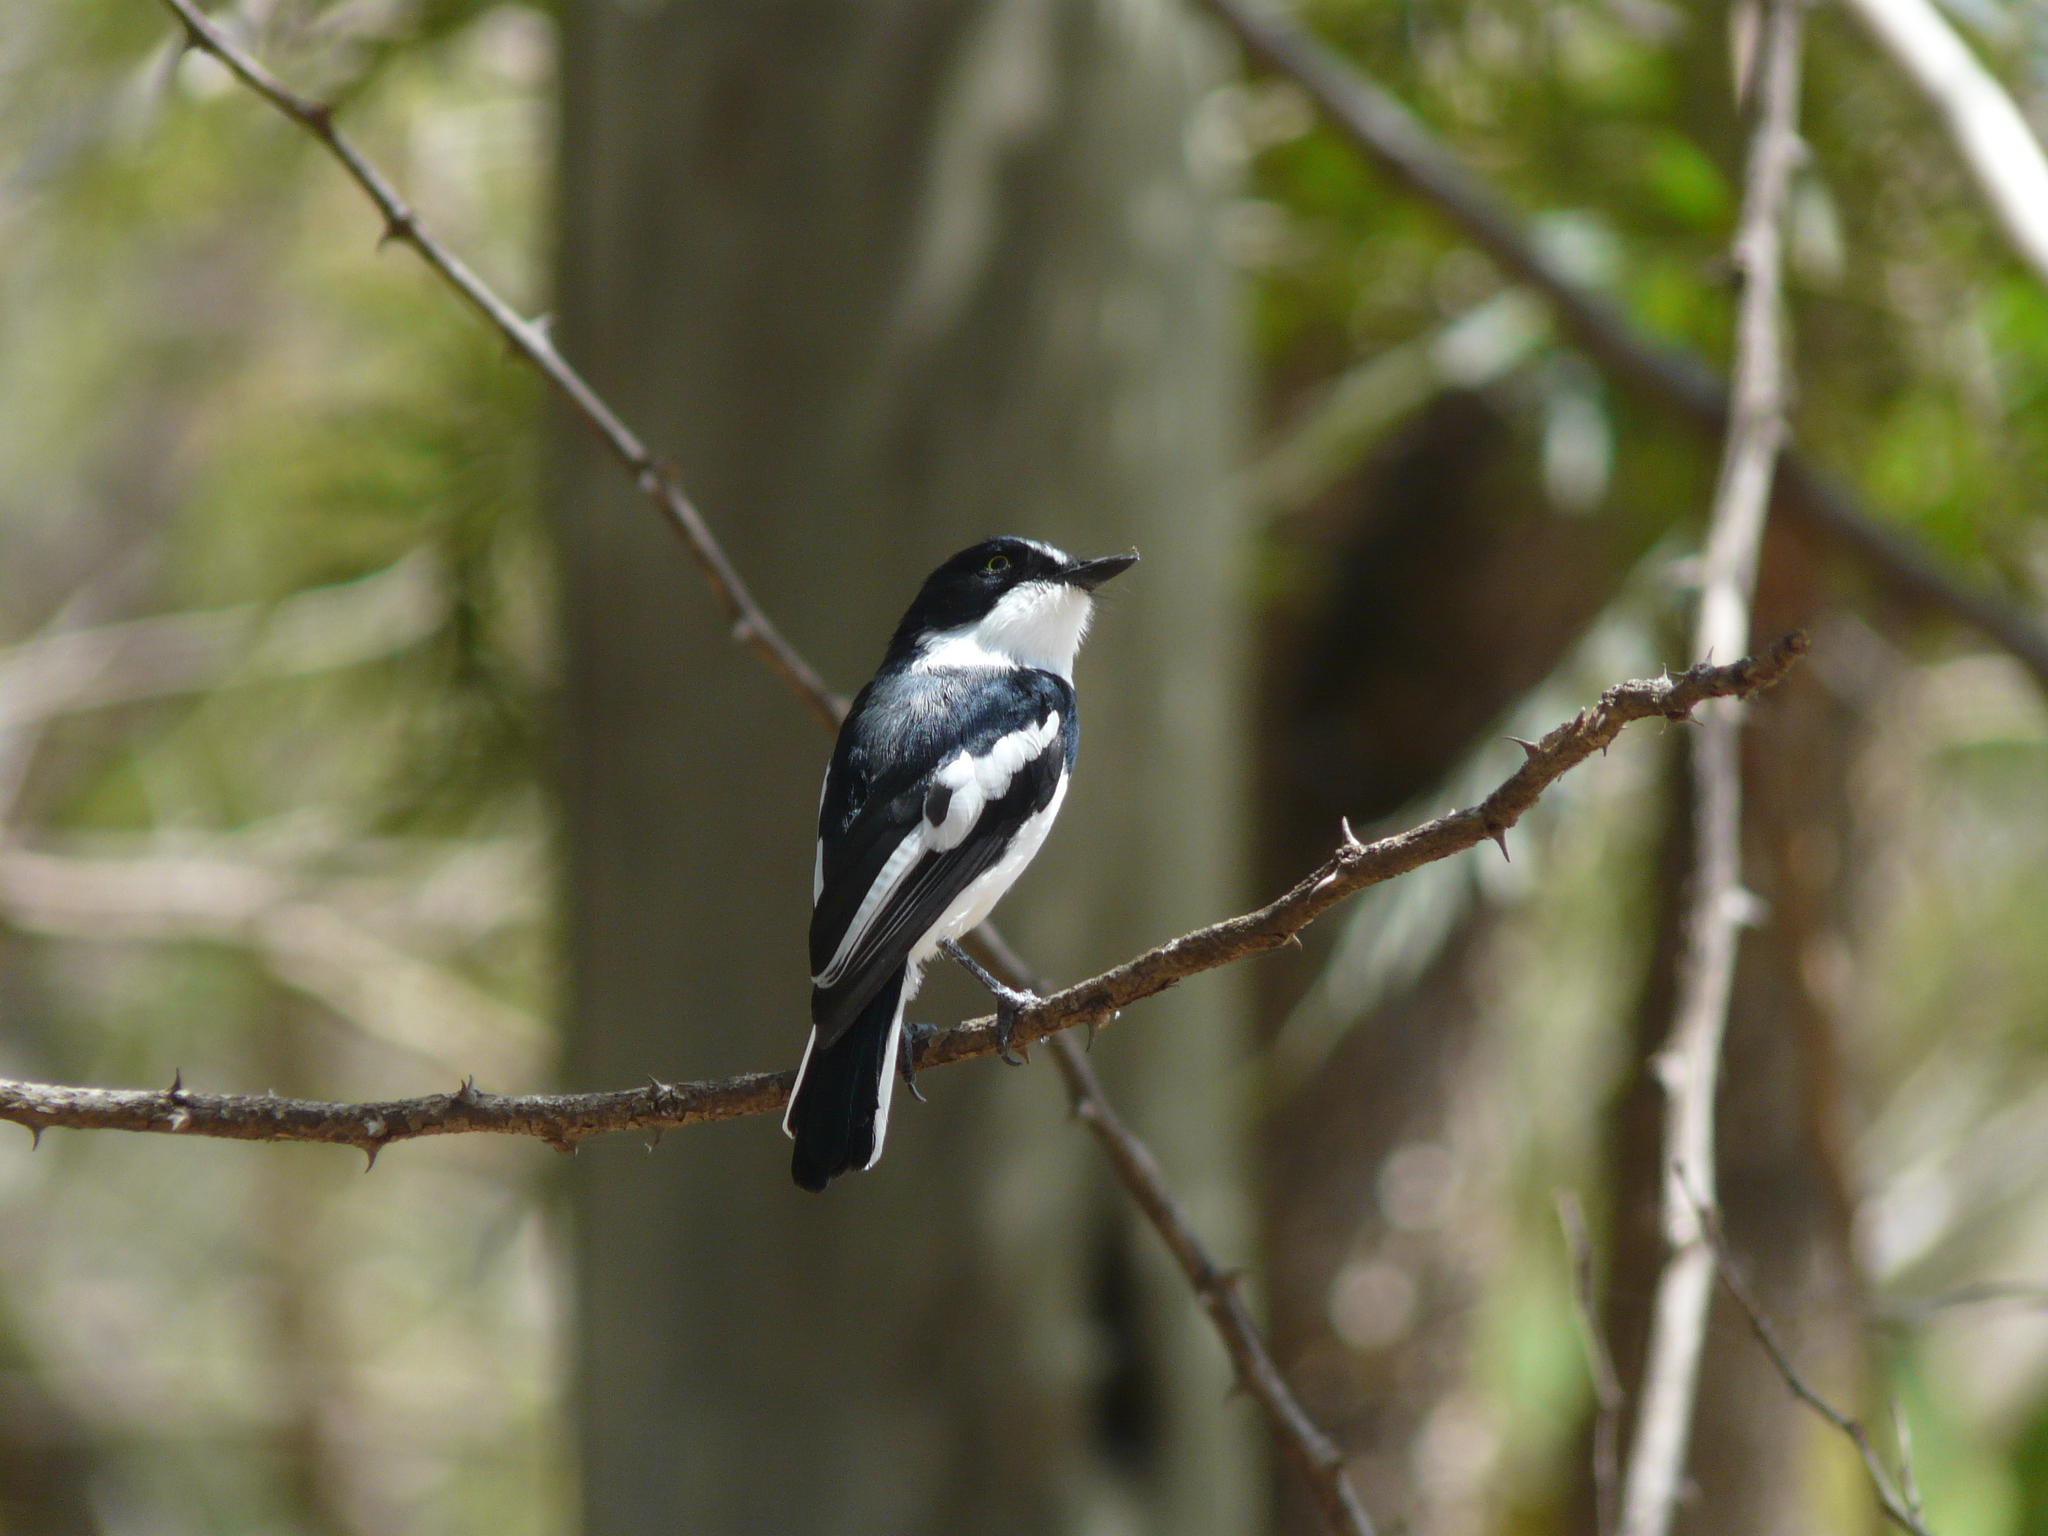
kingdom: Animalia
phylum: Chordata
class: Aves
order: Passeriformes
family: Platysteiridae
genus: Batis
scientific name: Batis molitor
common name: Chinspot batis
